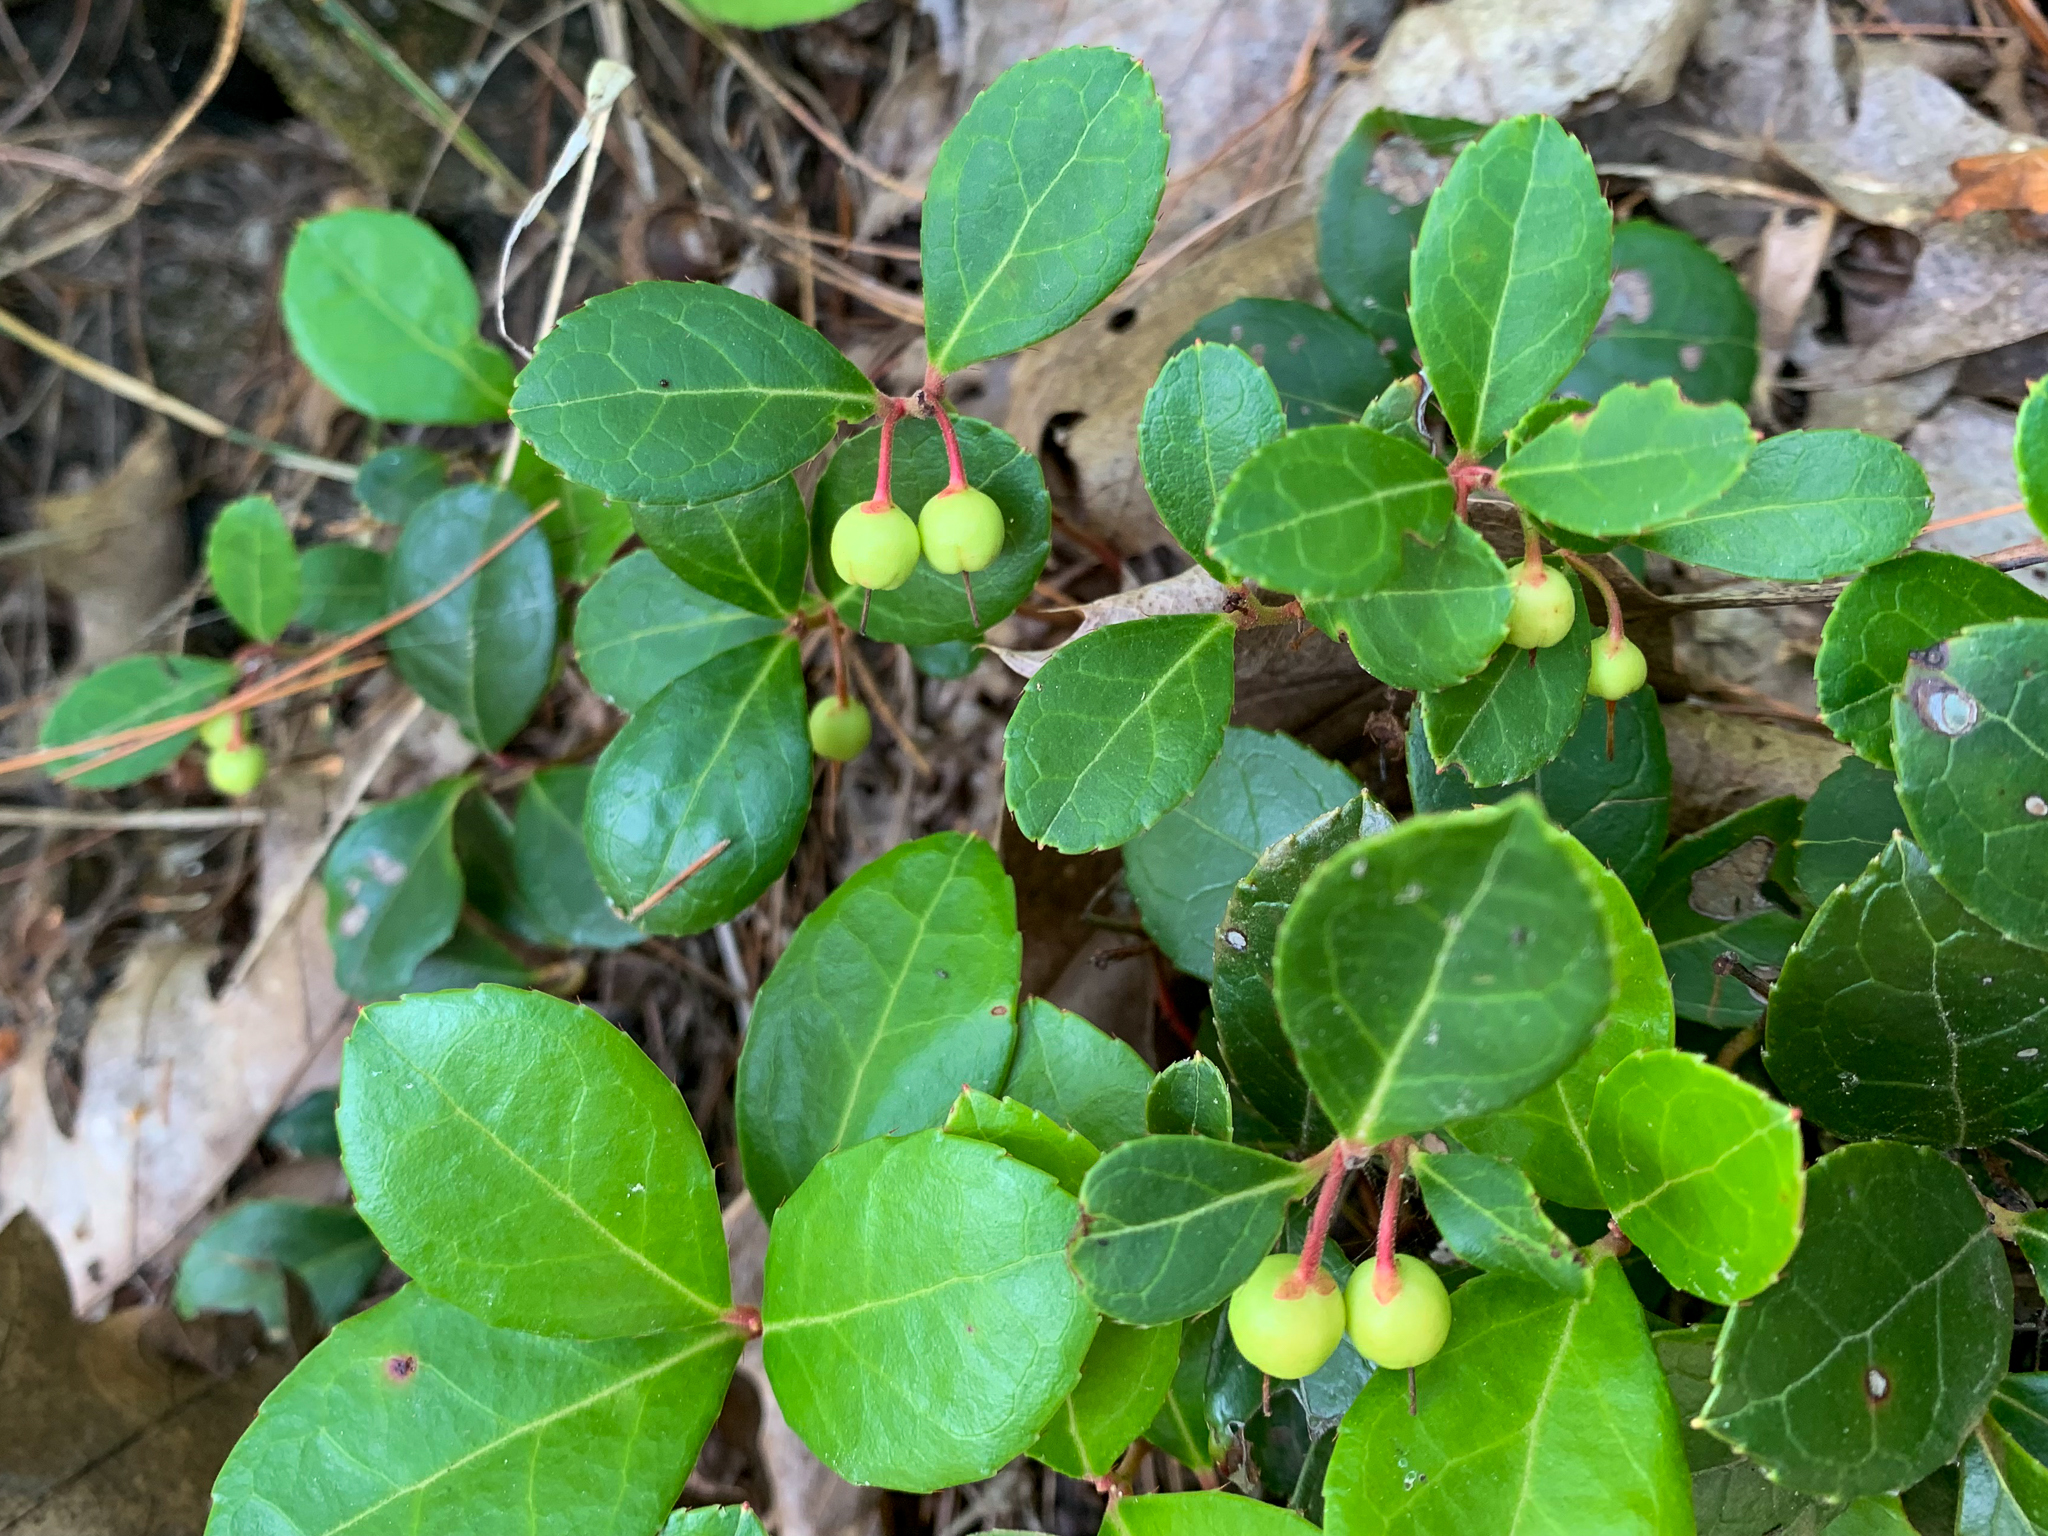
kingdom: Plantae
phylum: Tracheophyta
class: Magnoliopsida
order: Ericales
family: Ericaceae
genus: Gaultheria
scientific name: Gaultheria procumbens
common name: Checkerberry
